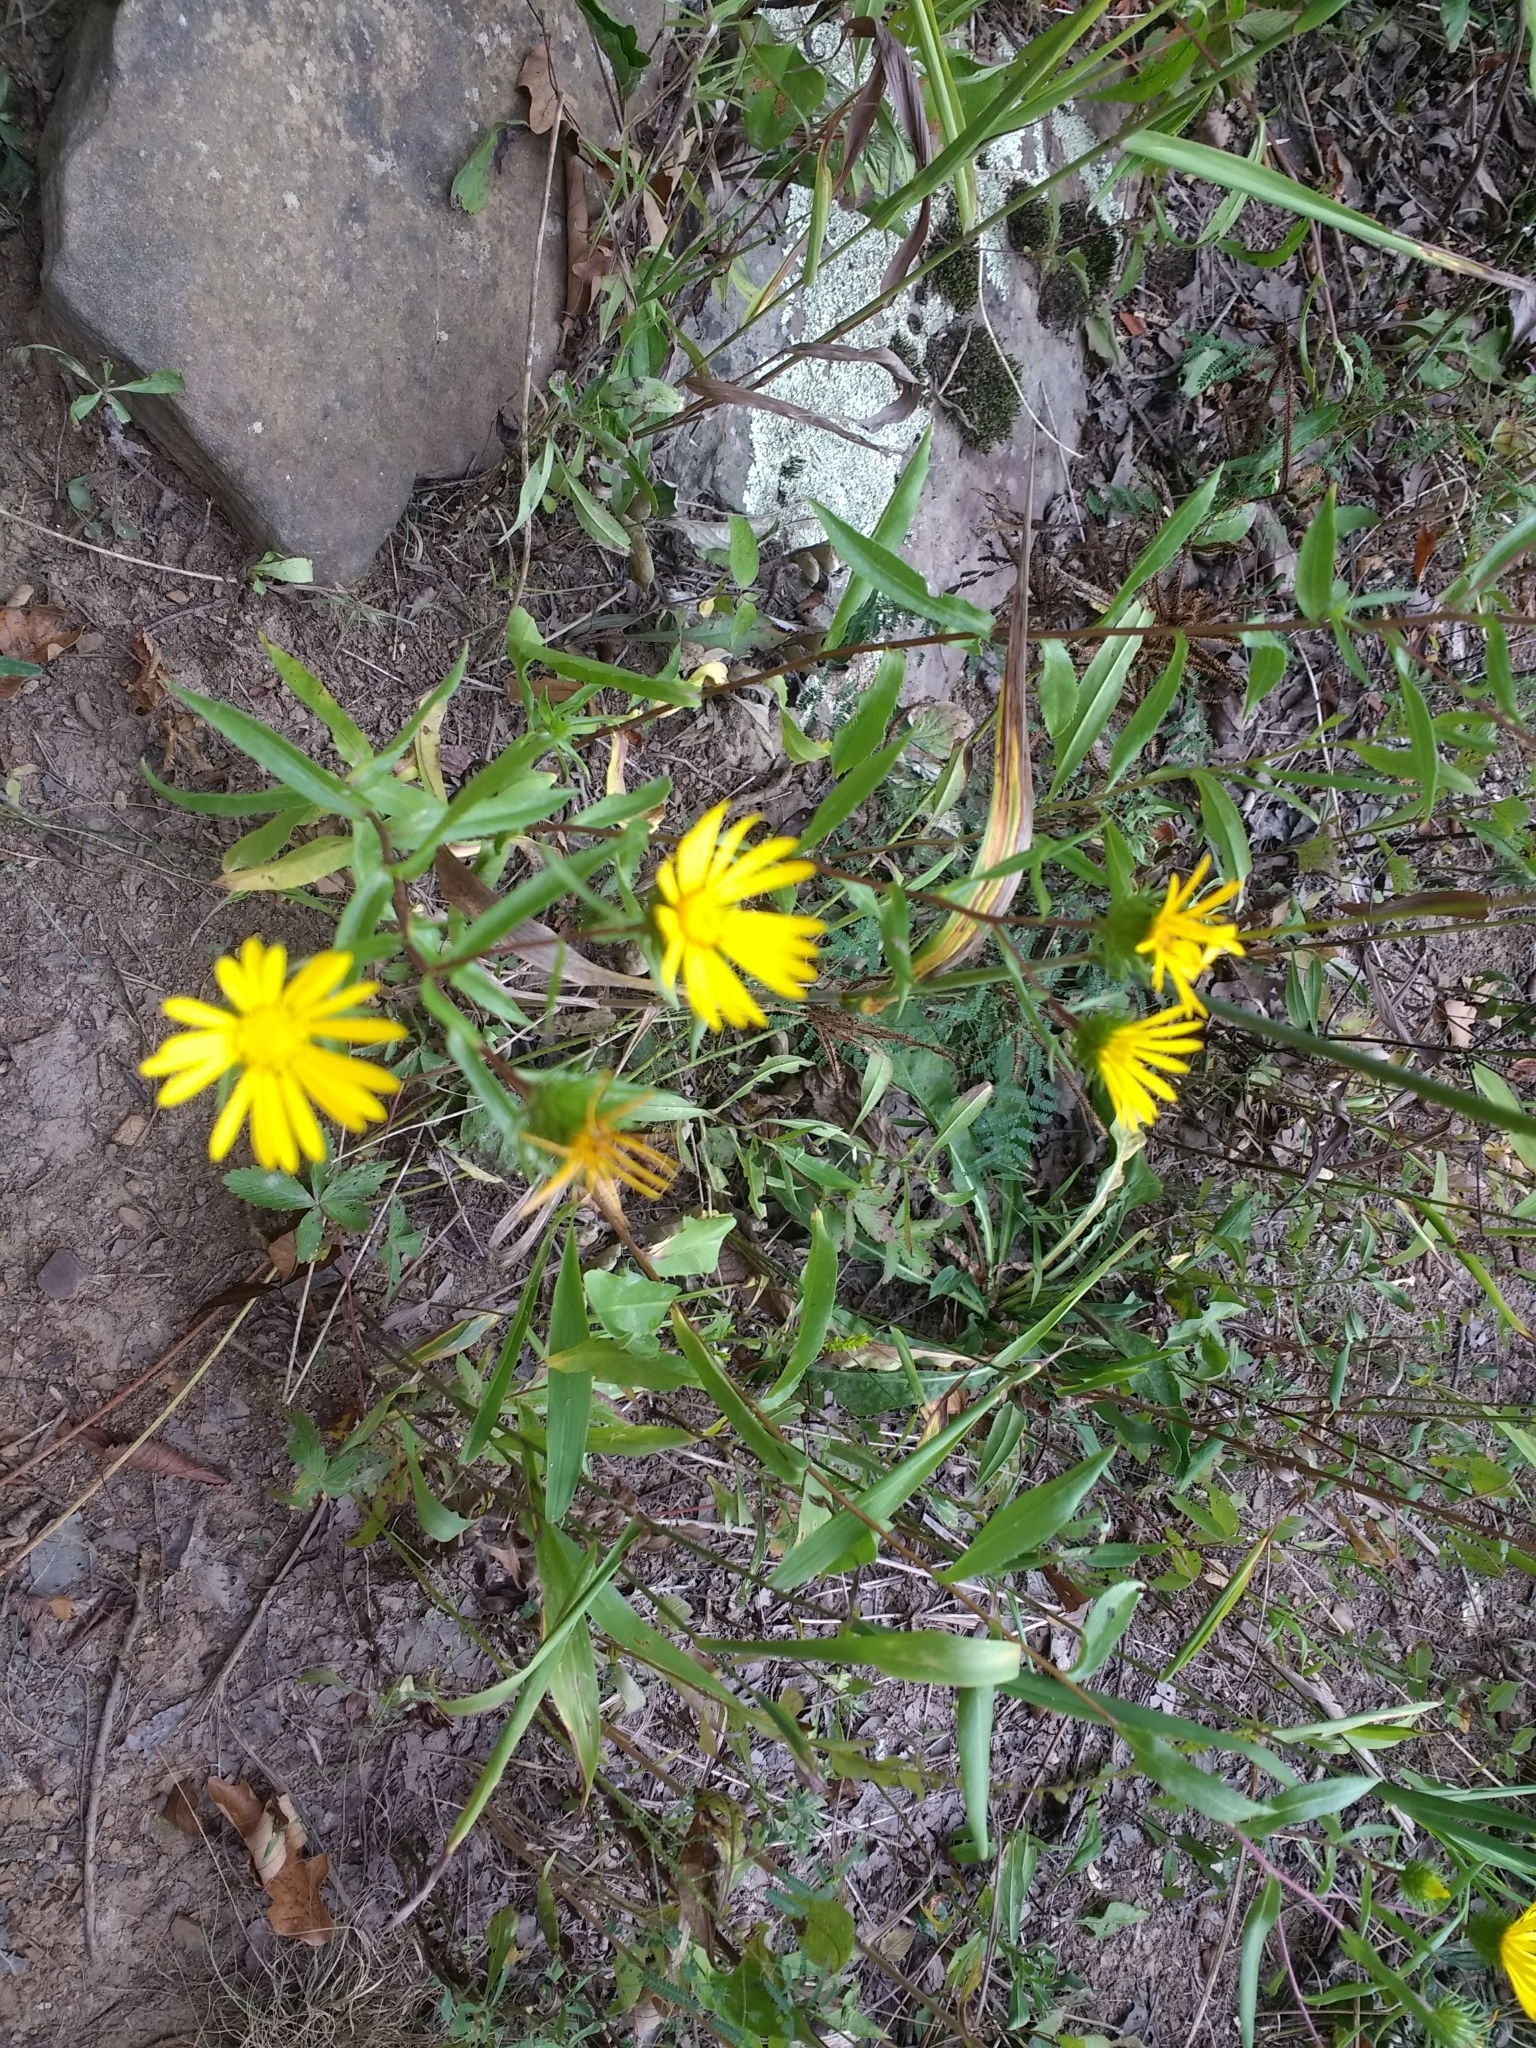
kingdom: Plantae
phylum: Tracheophyta
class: Magnoliopsida
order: Asterales
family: Asteraceae
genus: Grindelia
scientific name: Grindelia lanceolata
